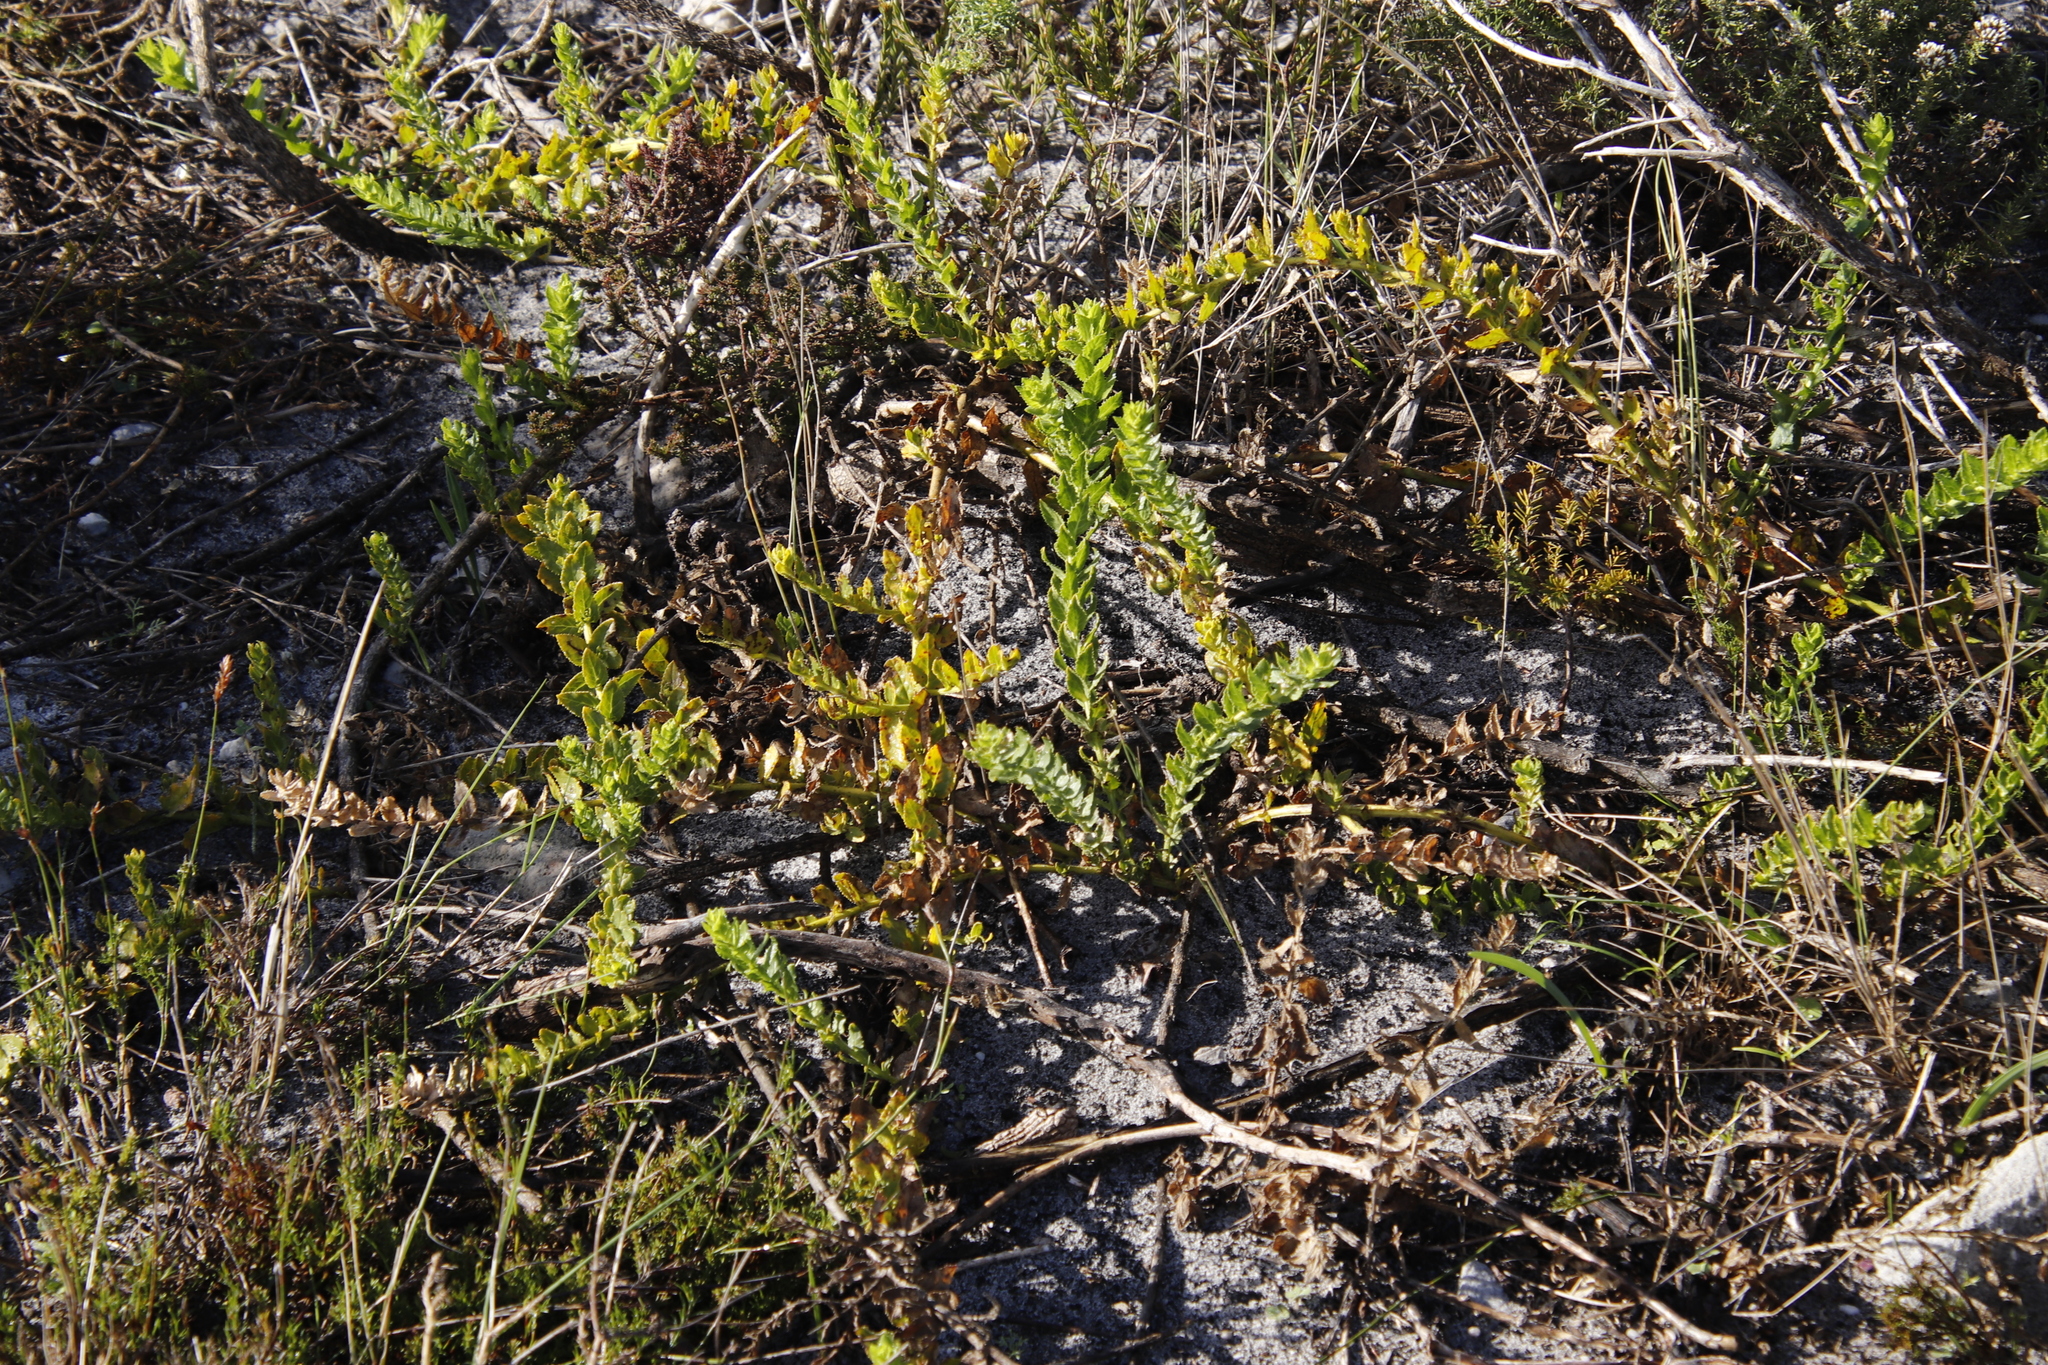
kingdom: Plantae
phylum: Tracheophyta
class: Magnoliopsida
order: Lamiales
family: Scrophulariaceae
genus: Oftia
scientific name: Oftia africana
